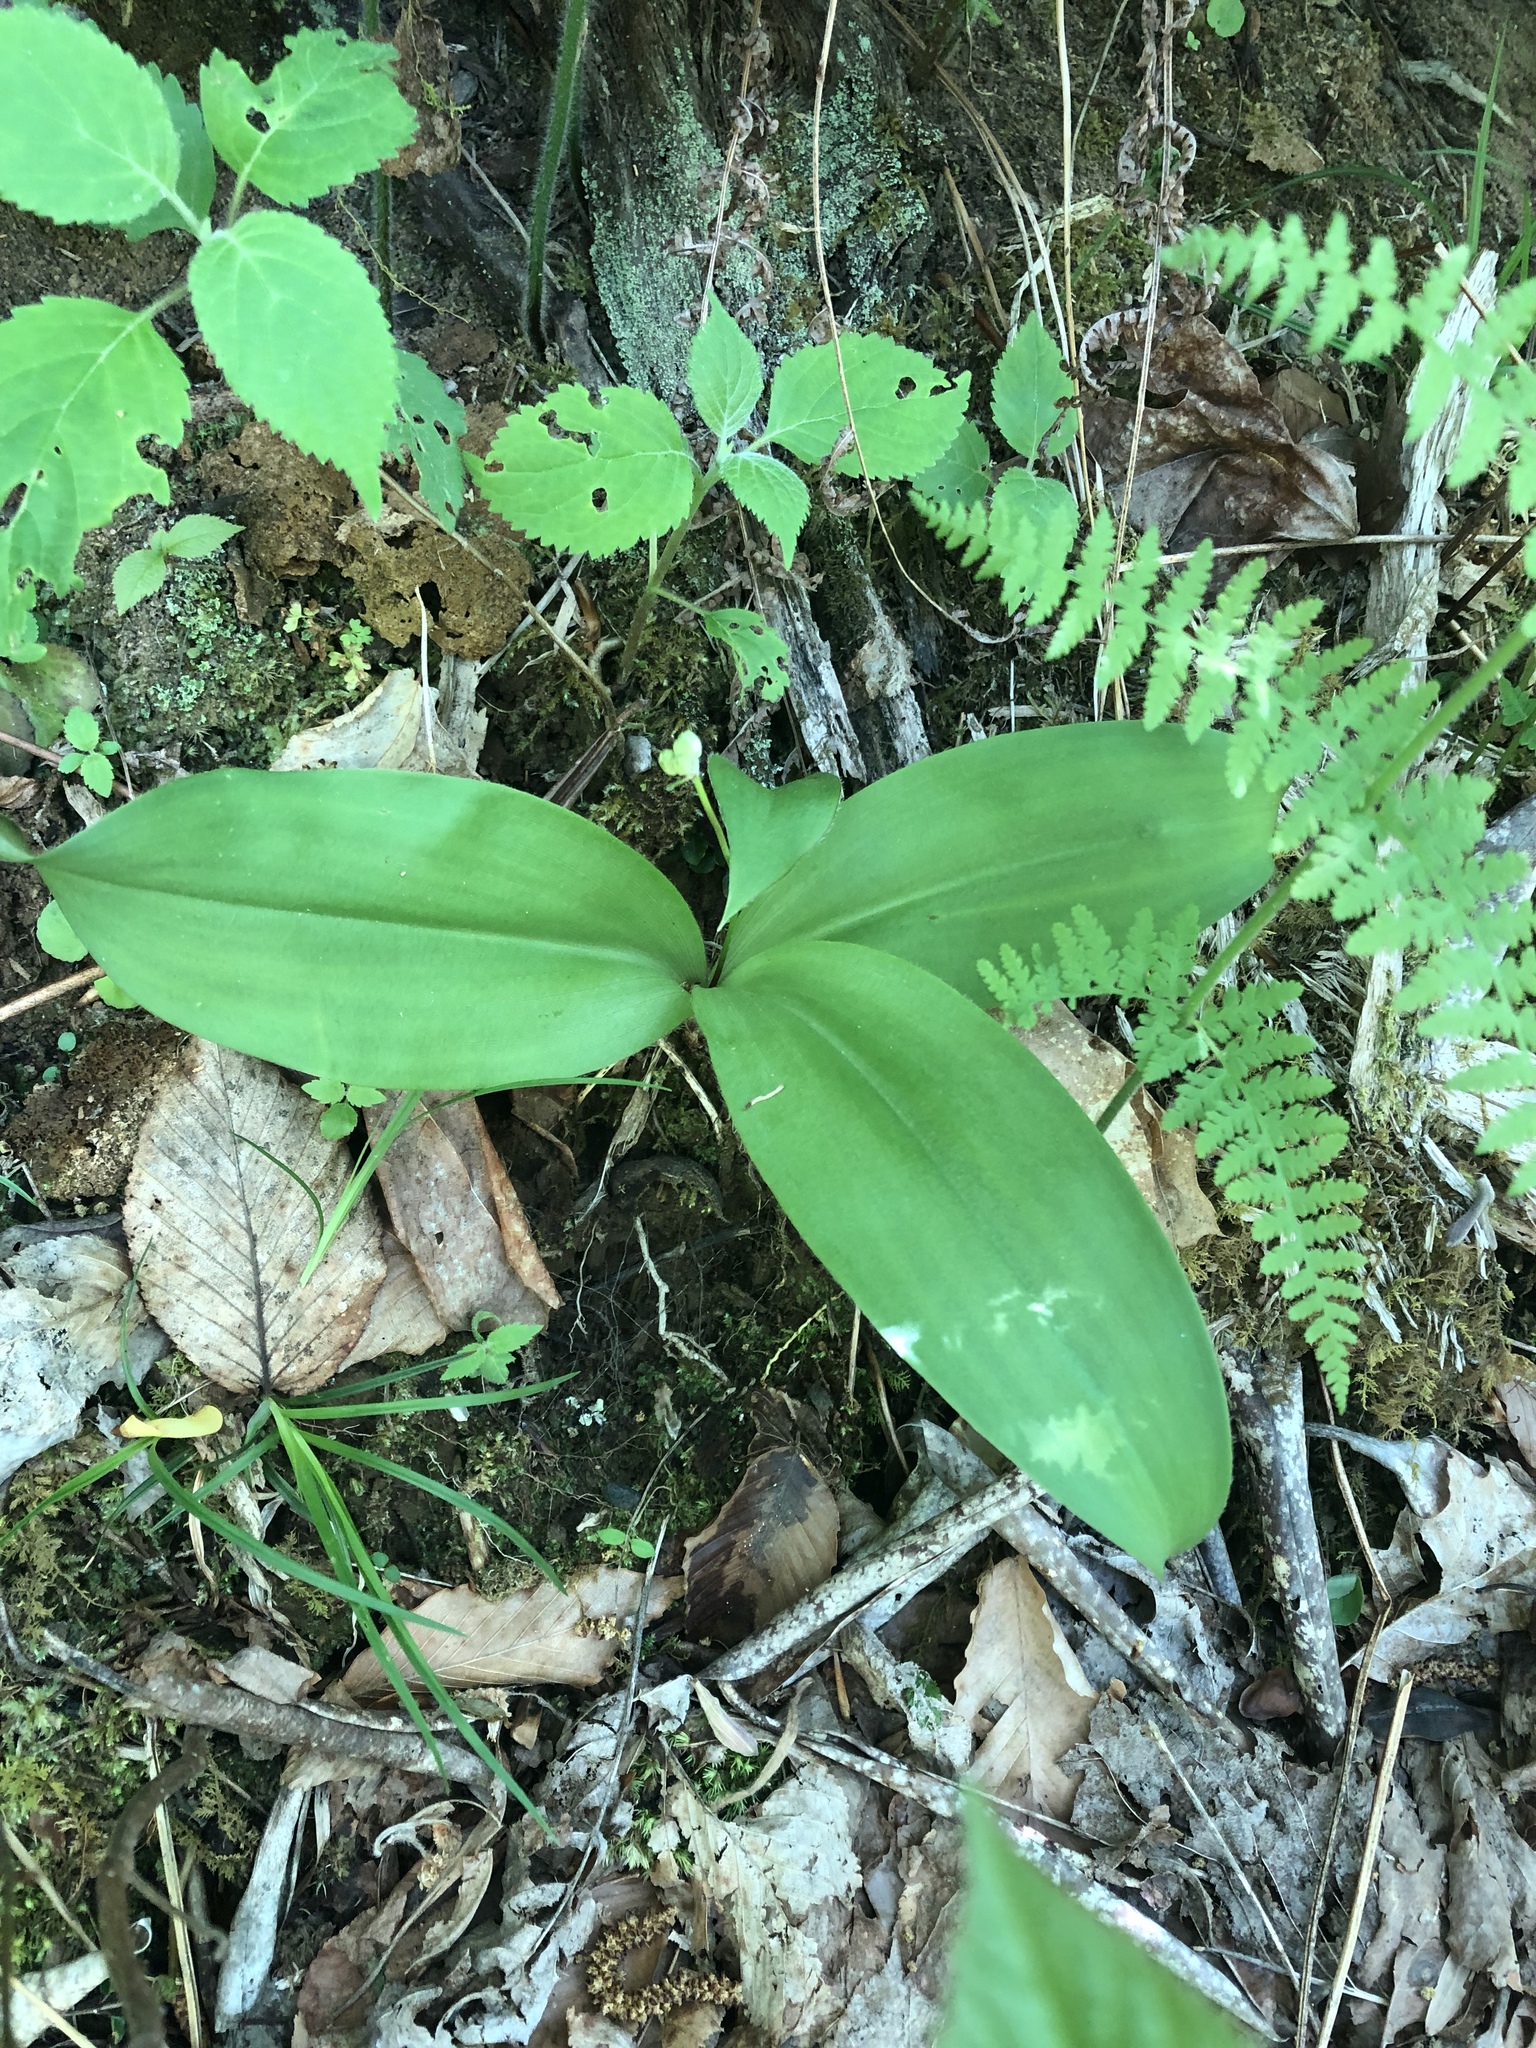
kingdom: Plantae
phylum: Tracheophyta
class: Liliopsida
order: Liliales
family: Liliaceae
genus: Clintonia
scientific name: Clintonia umbellulata
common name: Speckle wood-lily
